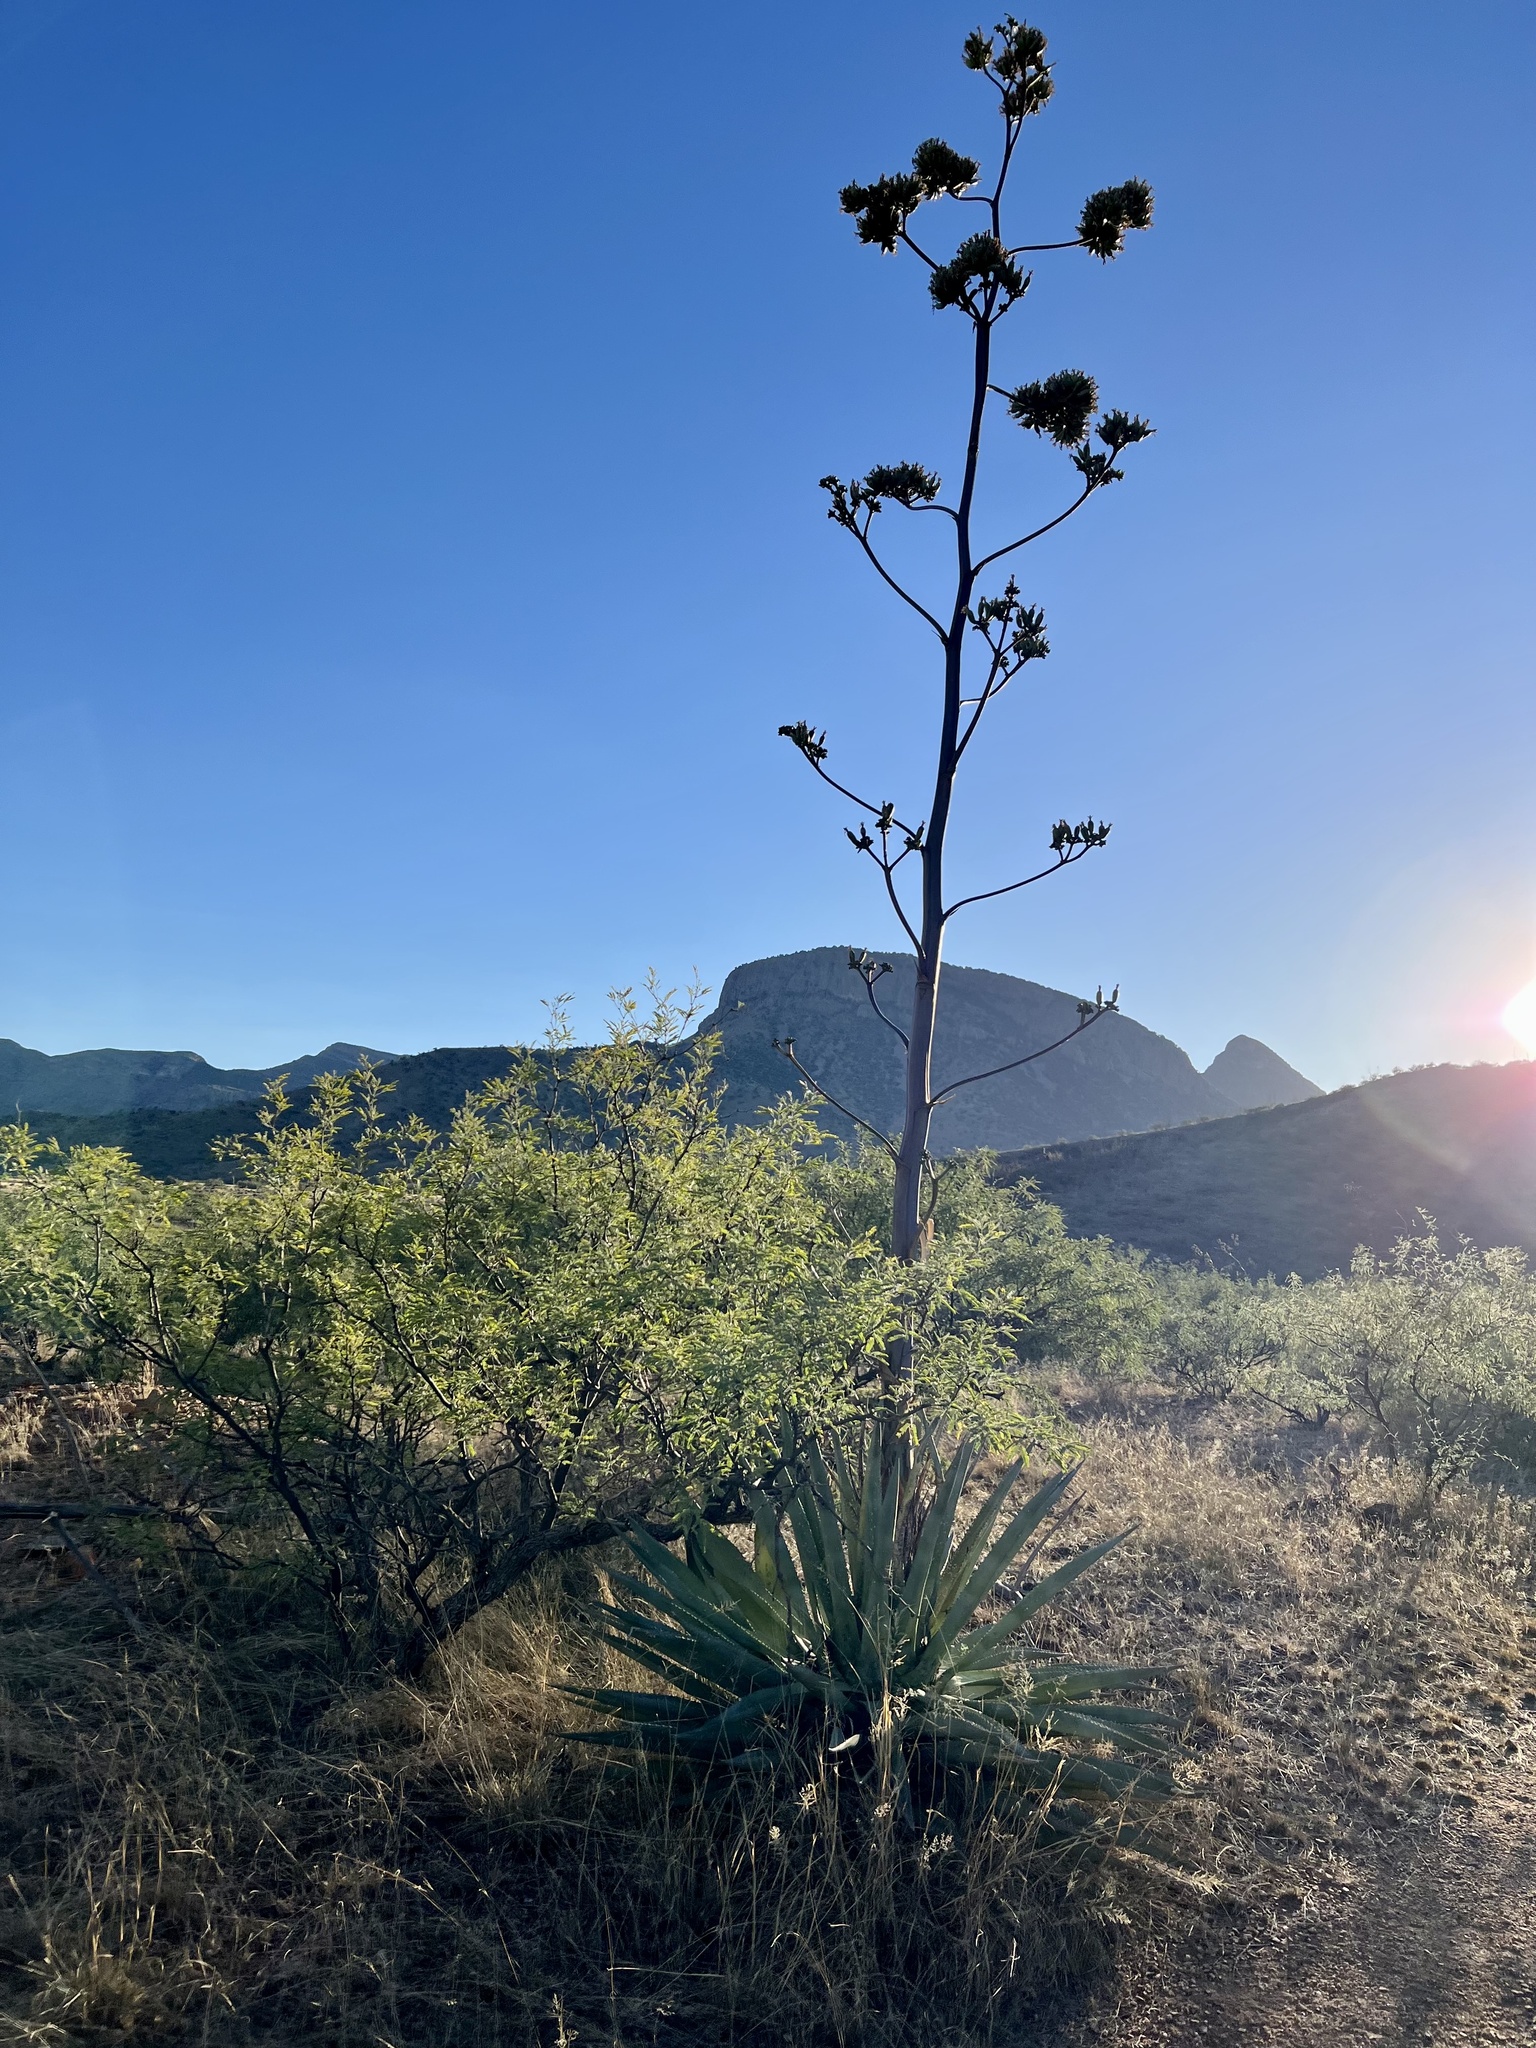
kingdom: Plantae
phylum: Tracheophyta
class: Liliopsida
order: Asparagales
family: Asparagaceae
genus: Agave
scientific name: Agave palmeri
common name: Palmer agave
